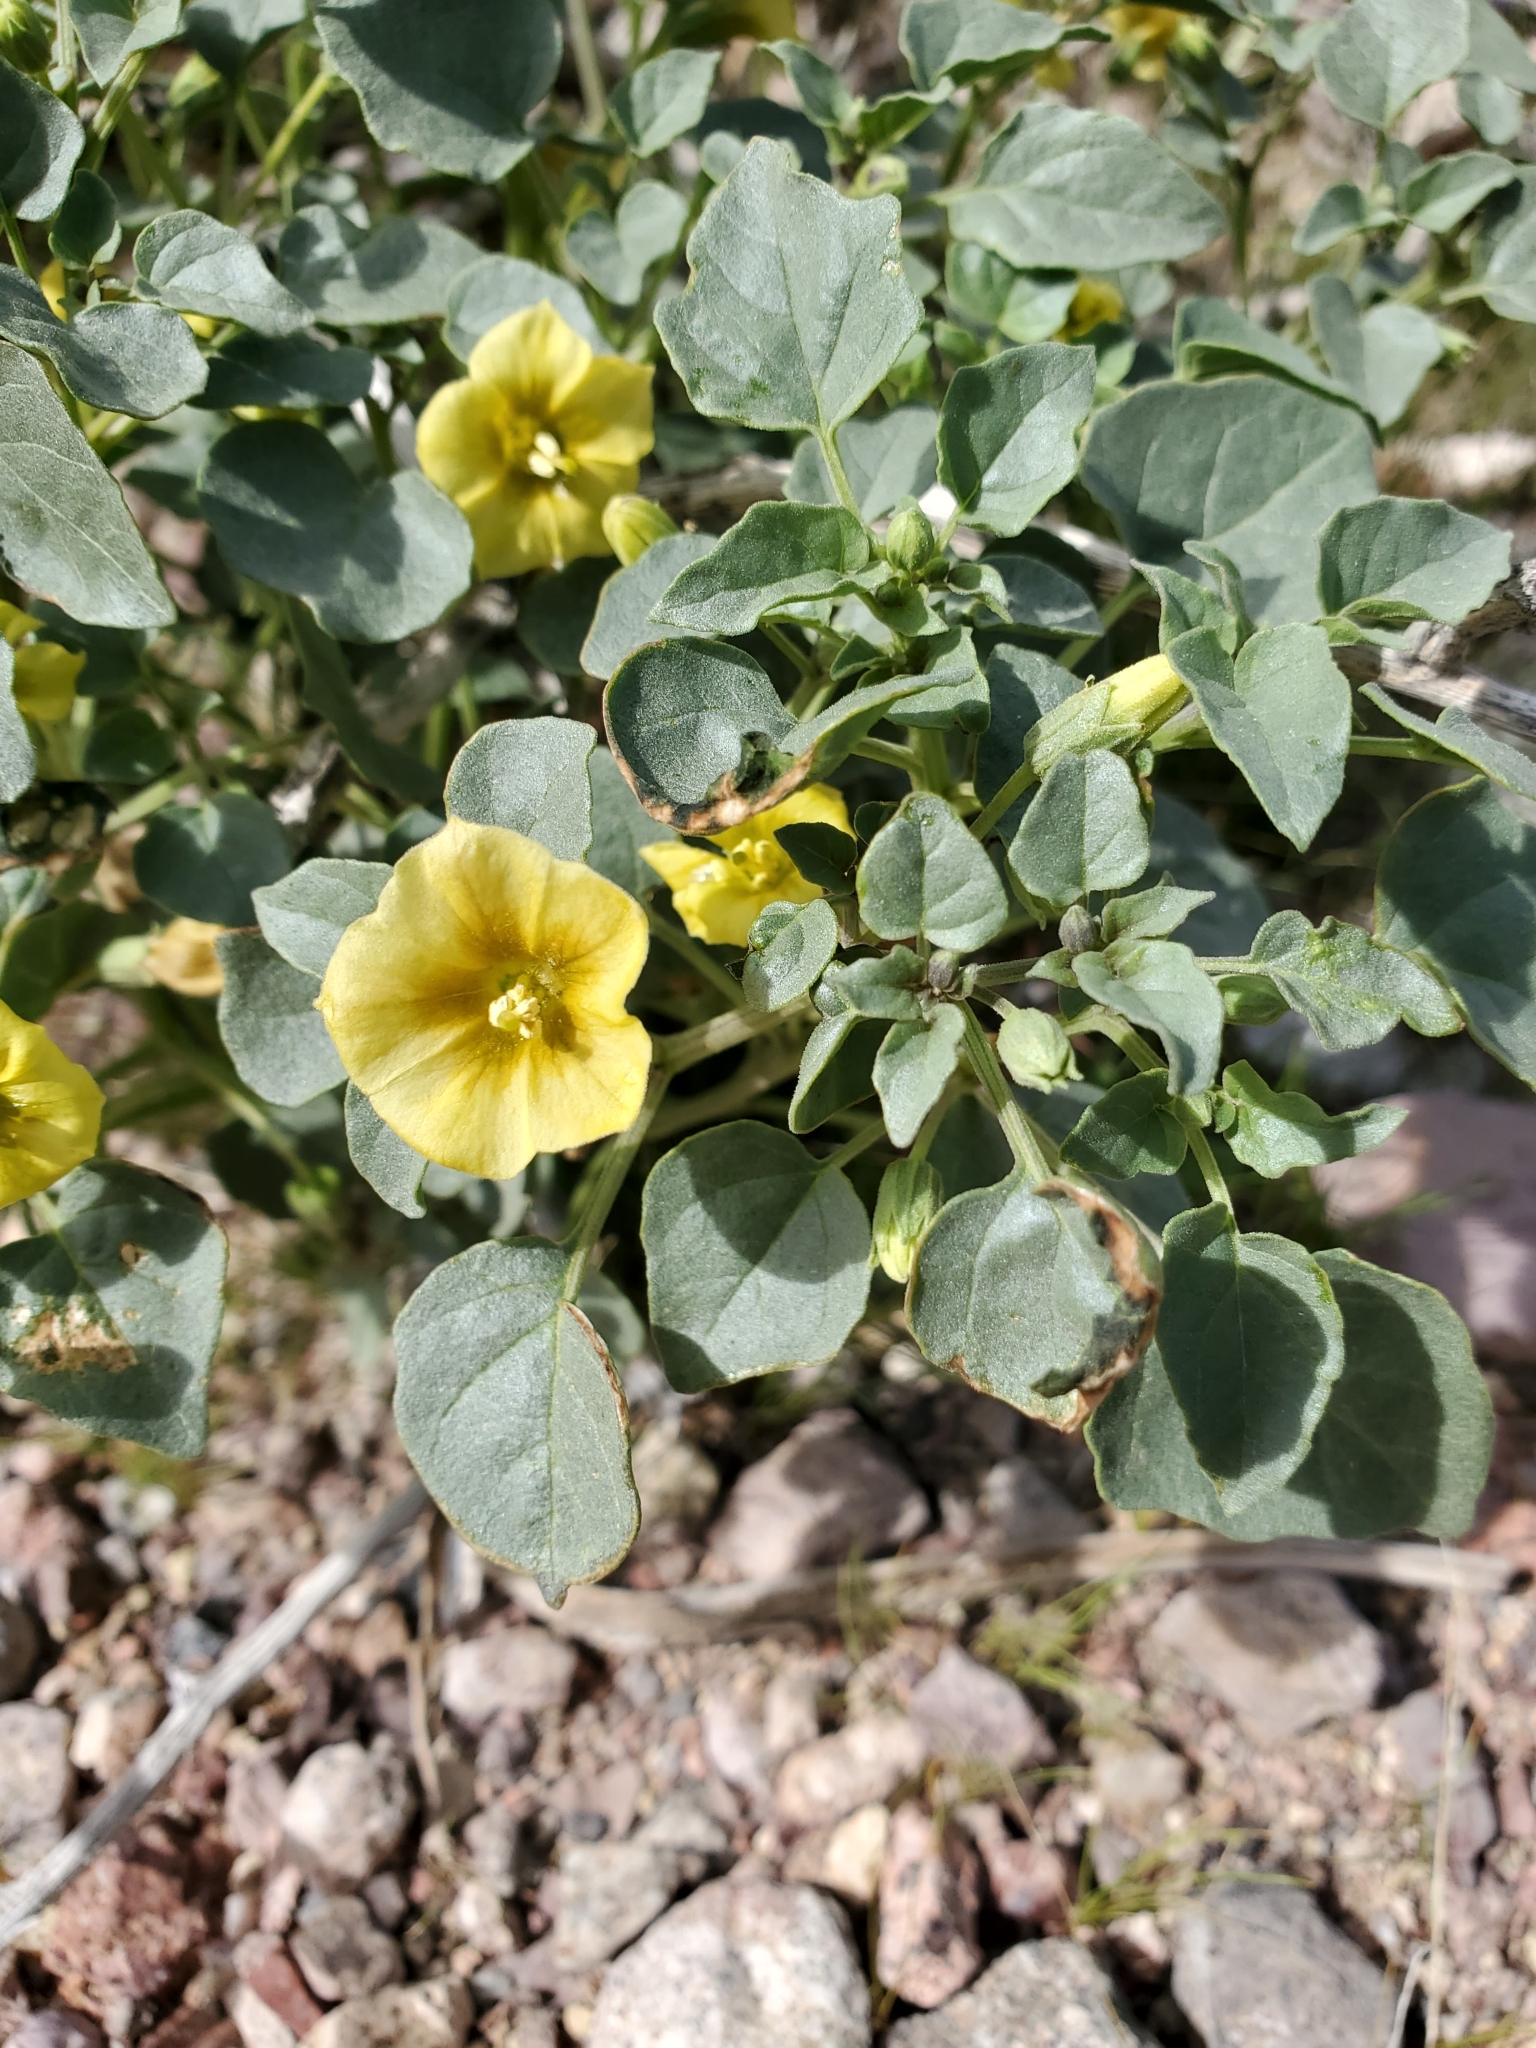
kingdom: Plantae
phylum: Tracheophyta
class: Magnoliopsida
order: Solanales
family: Solanaceae
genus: Physalis
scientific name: Physalis crassifolia
